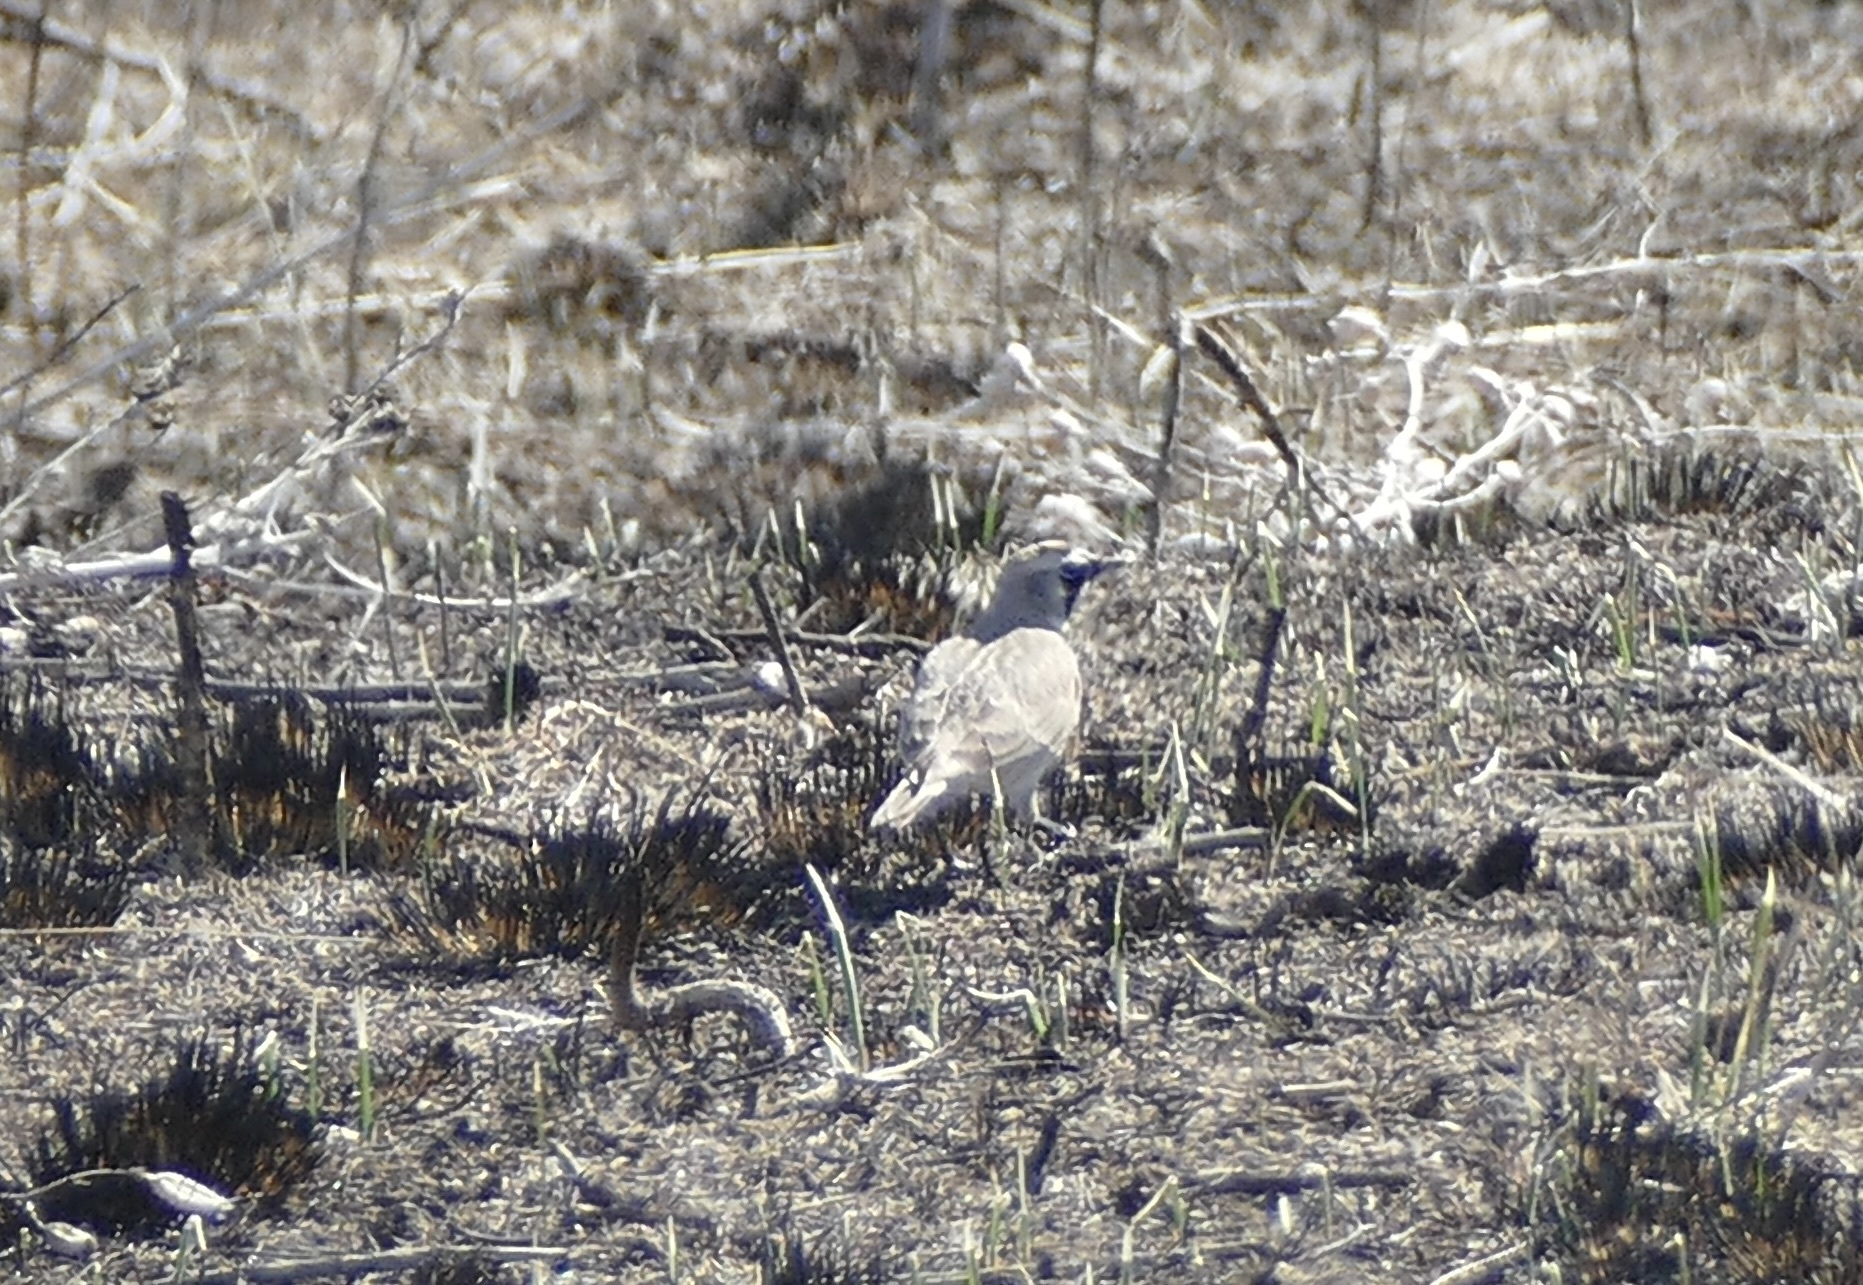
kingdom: Animalia
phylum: Chordata
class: Aves
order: Passeriformes
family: Alaudidae
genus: Eremophila
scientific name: Eremophila alpestris
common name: Horned lark
